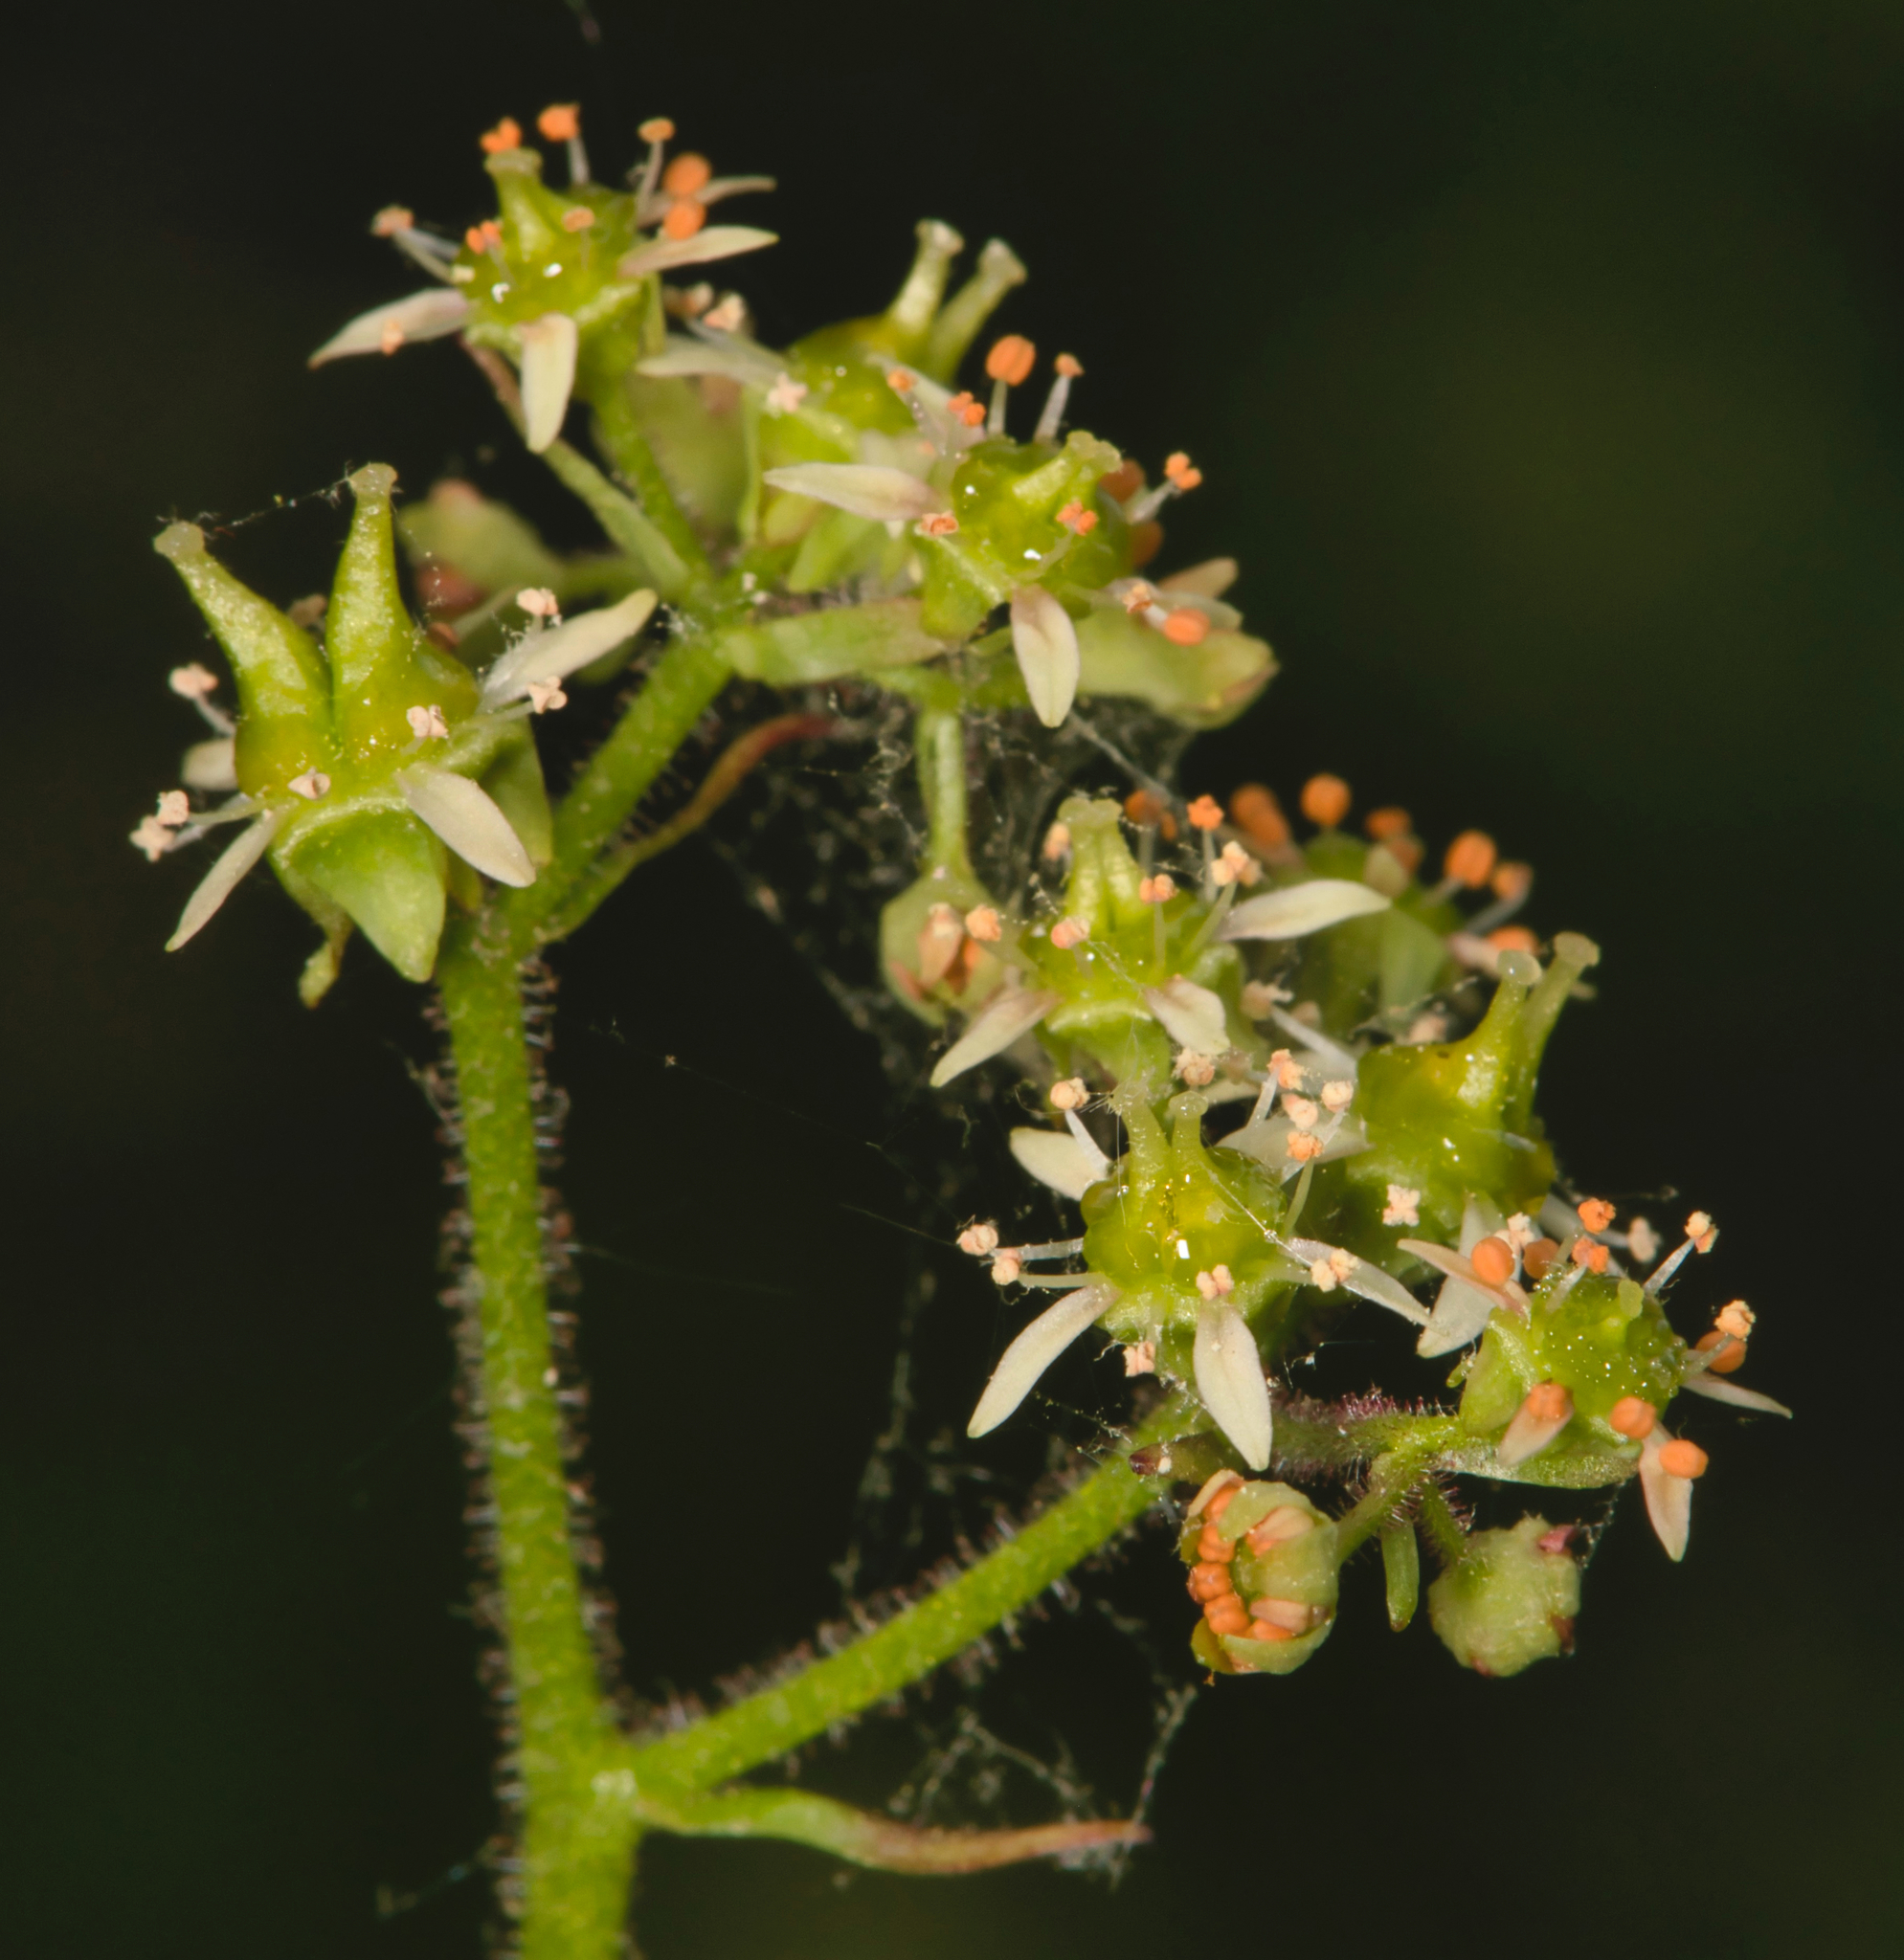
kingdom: Plantae
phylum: Tracheophyta
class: Magnoliopsida
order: Saxifragales
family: Saxifragaceae
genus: Micranthes
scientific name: Micranthes pensylvanica
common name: Marsh saxifrage
